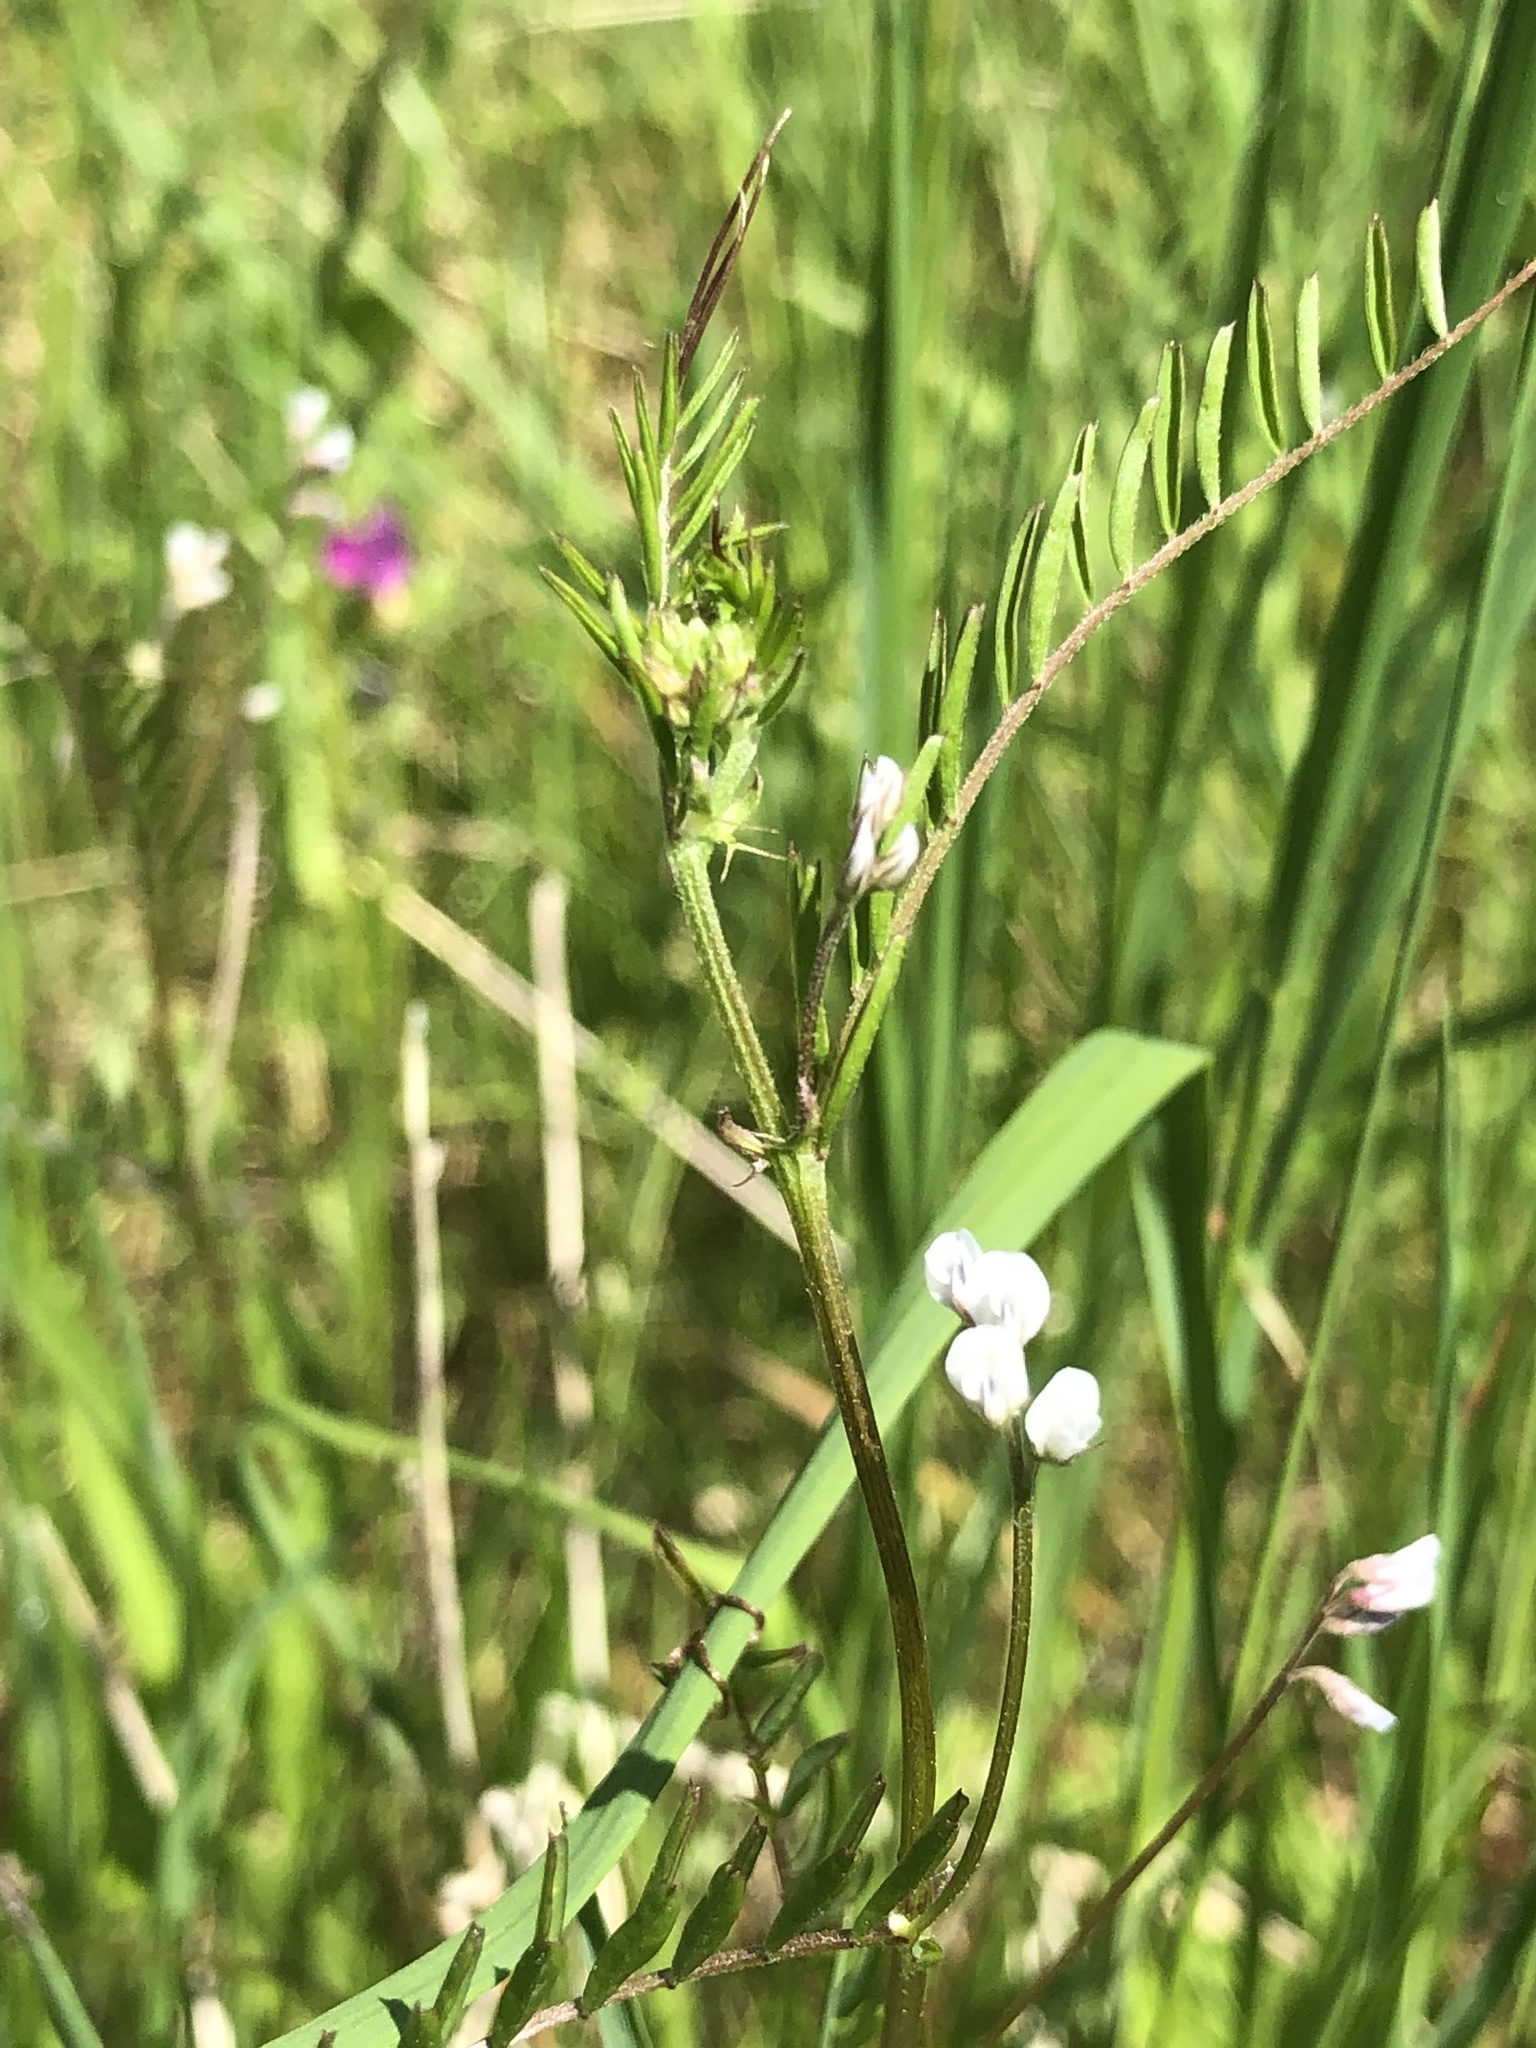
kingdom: Plantae
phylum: Tracheophyta
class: Magnoliopsida
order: Fabales
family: Fabaceae
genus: Vicia
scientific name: Vicia hirsuta
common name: Tiny vetch
